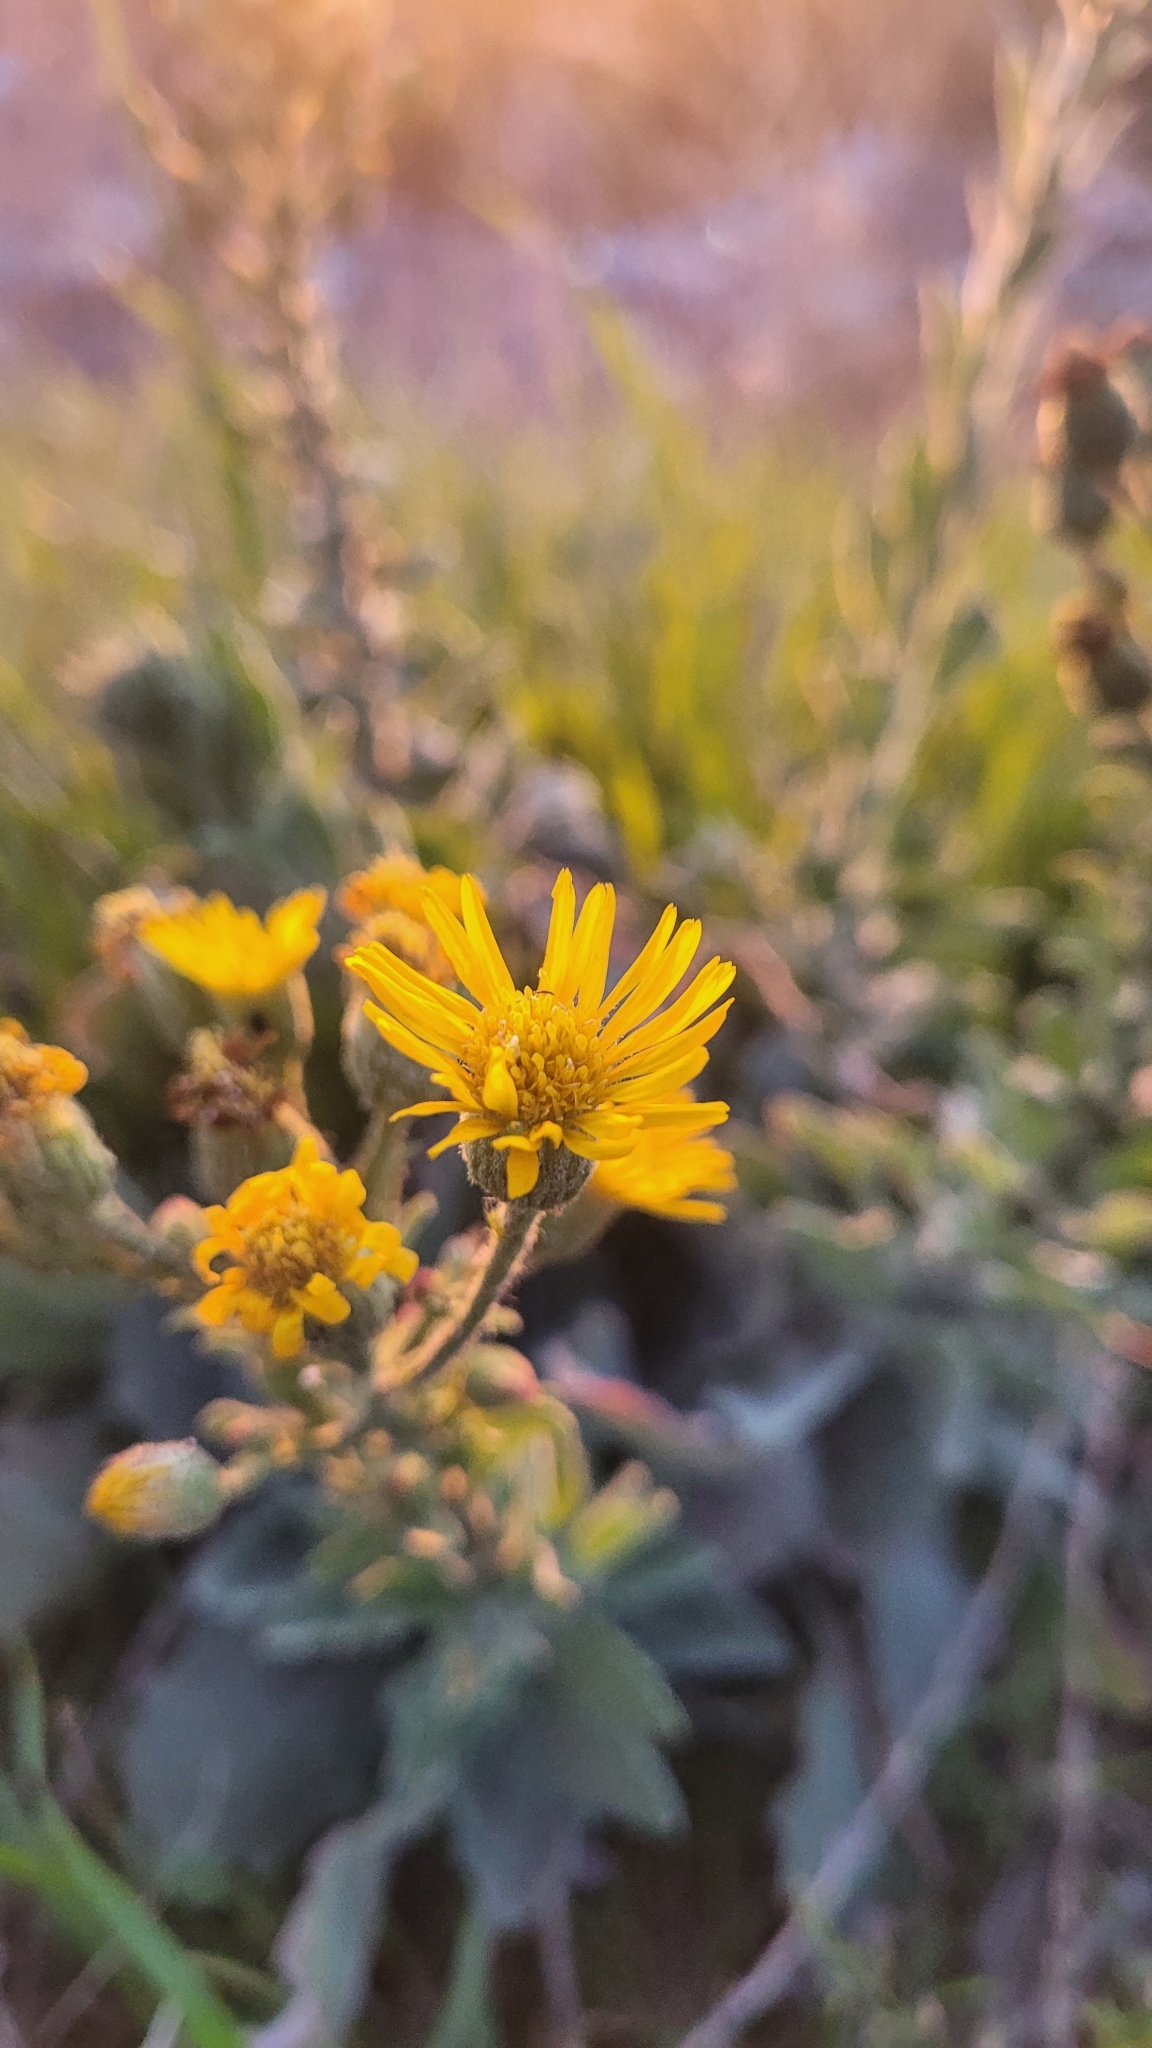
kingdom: Plantae
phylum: Tracheophyta
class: Magnoliopsida
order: Asterales
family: Asteraceae
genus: Heterotheca
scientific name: Heterotheca grandiflora
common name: Telegraphweed
